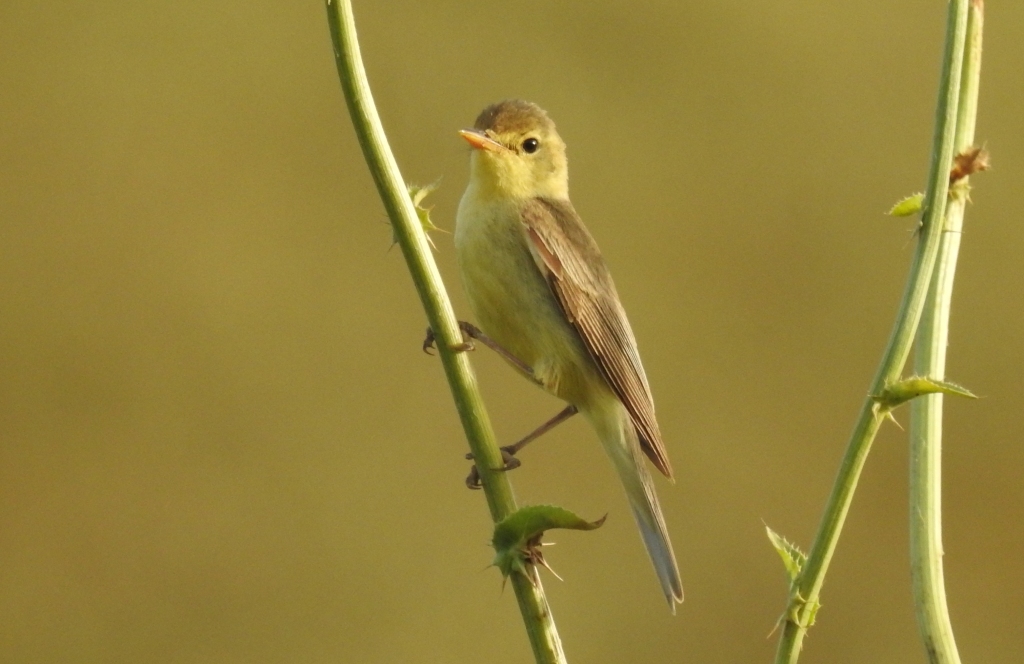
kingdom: Animalia
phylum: Chordata
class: Aves
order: Passeriformes
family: Acrocephalidae
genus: Hippolais
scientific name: Hippolais polyglotta
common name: Melodious warbler
